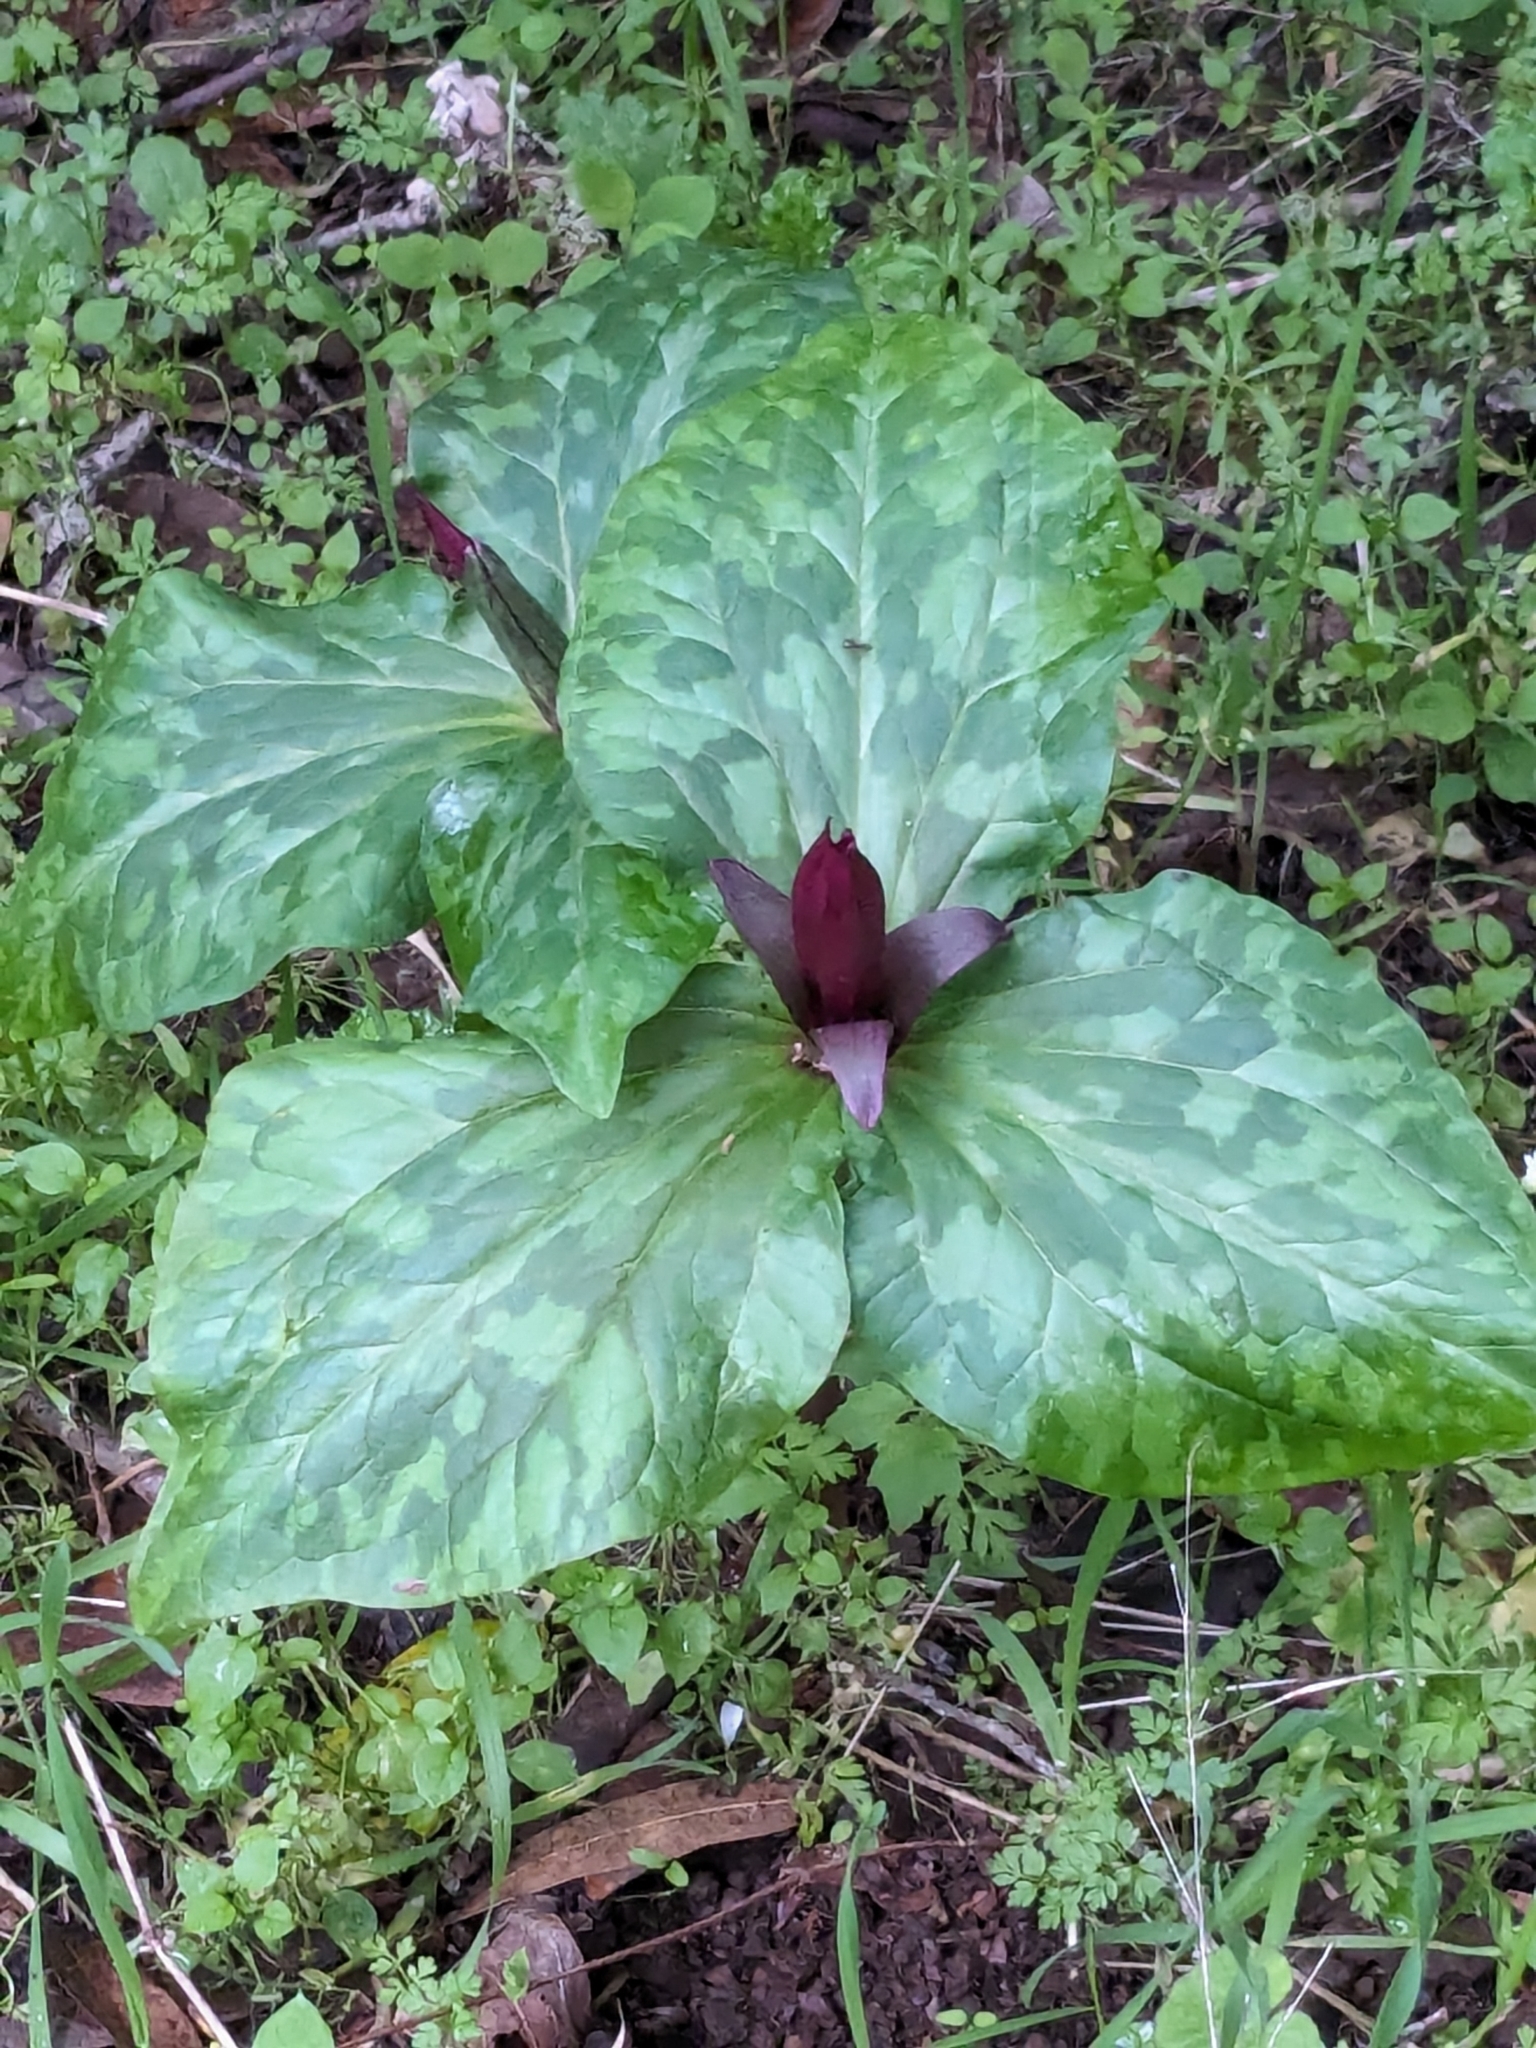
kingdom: Plantae
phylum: Tracheophyta
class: Liliopsida
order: Liliales
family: Melanthiaceae
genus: Trillium
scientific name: Trillium chloropetalum
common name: Giant trillium
